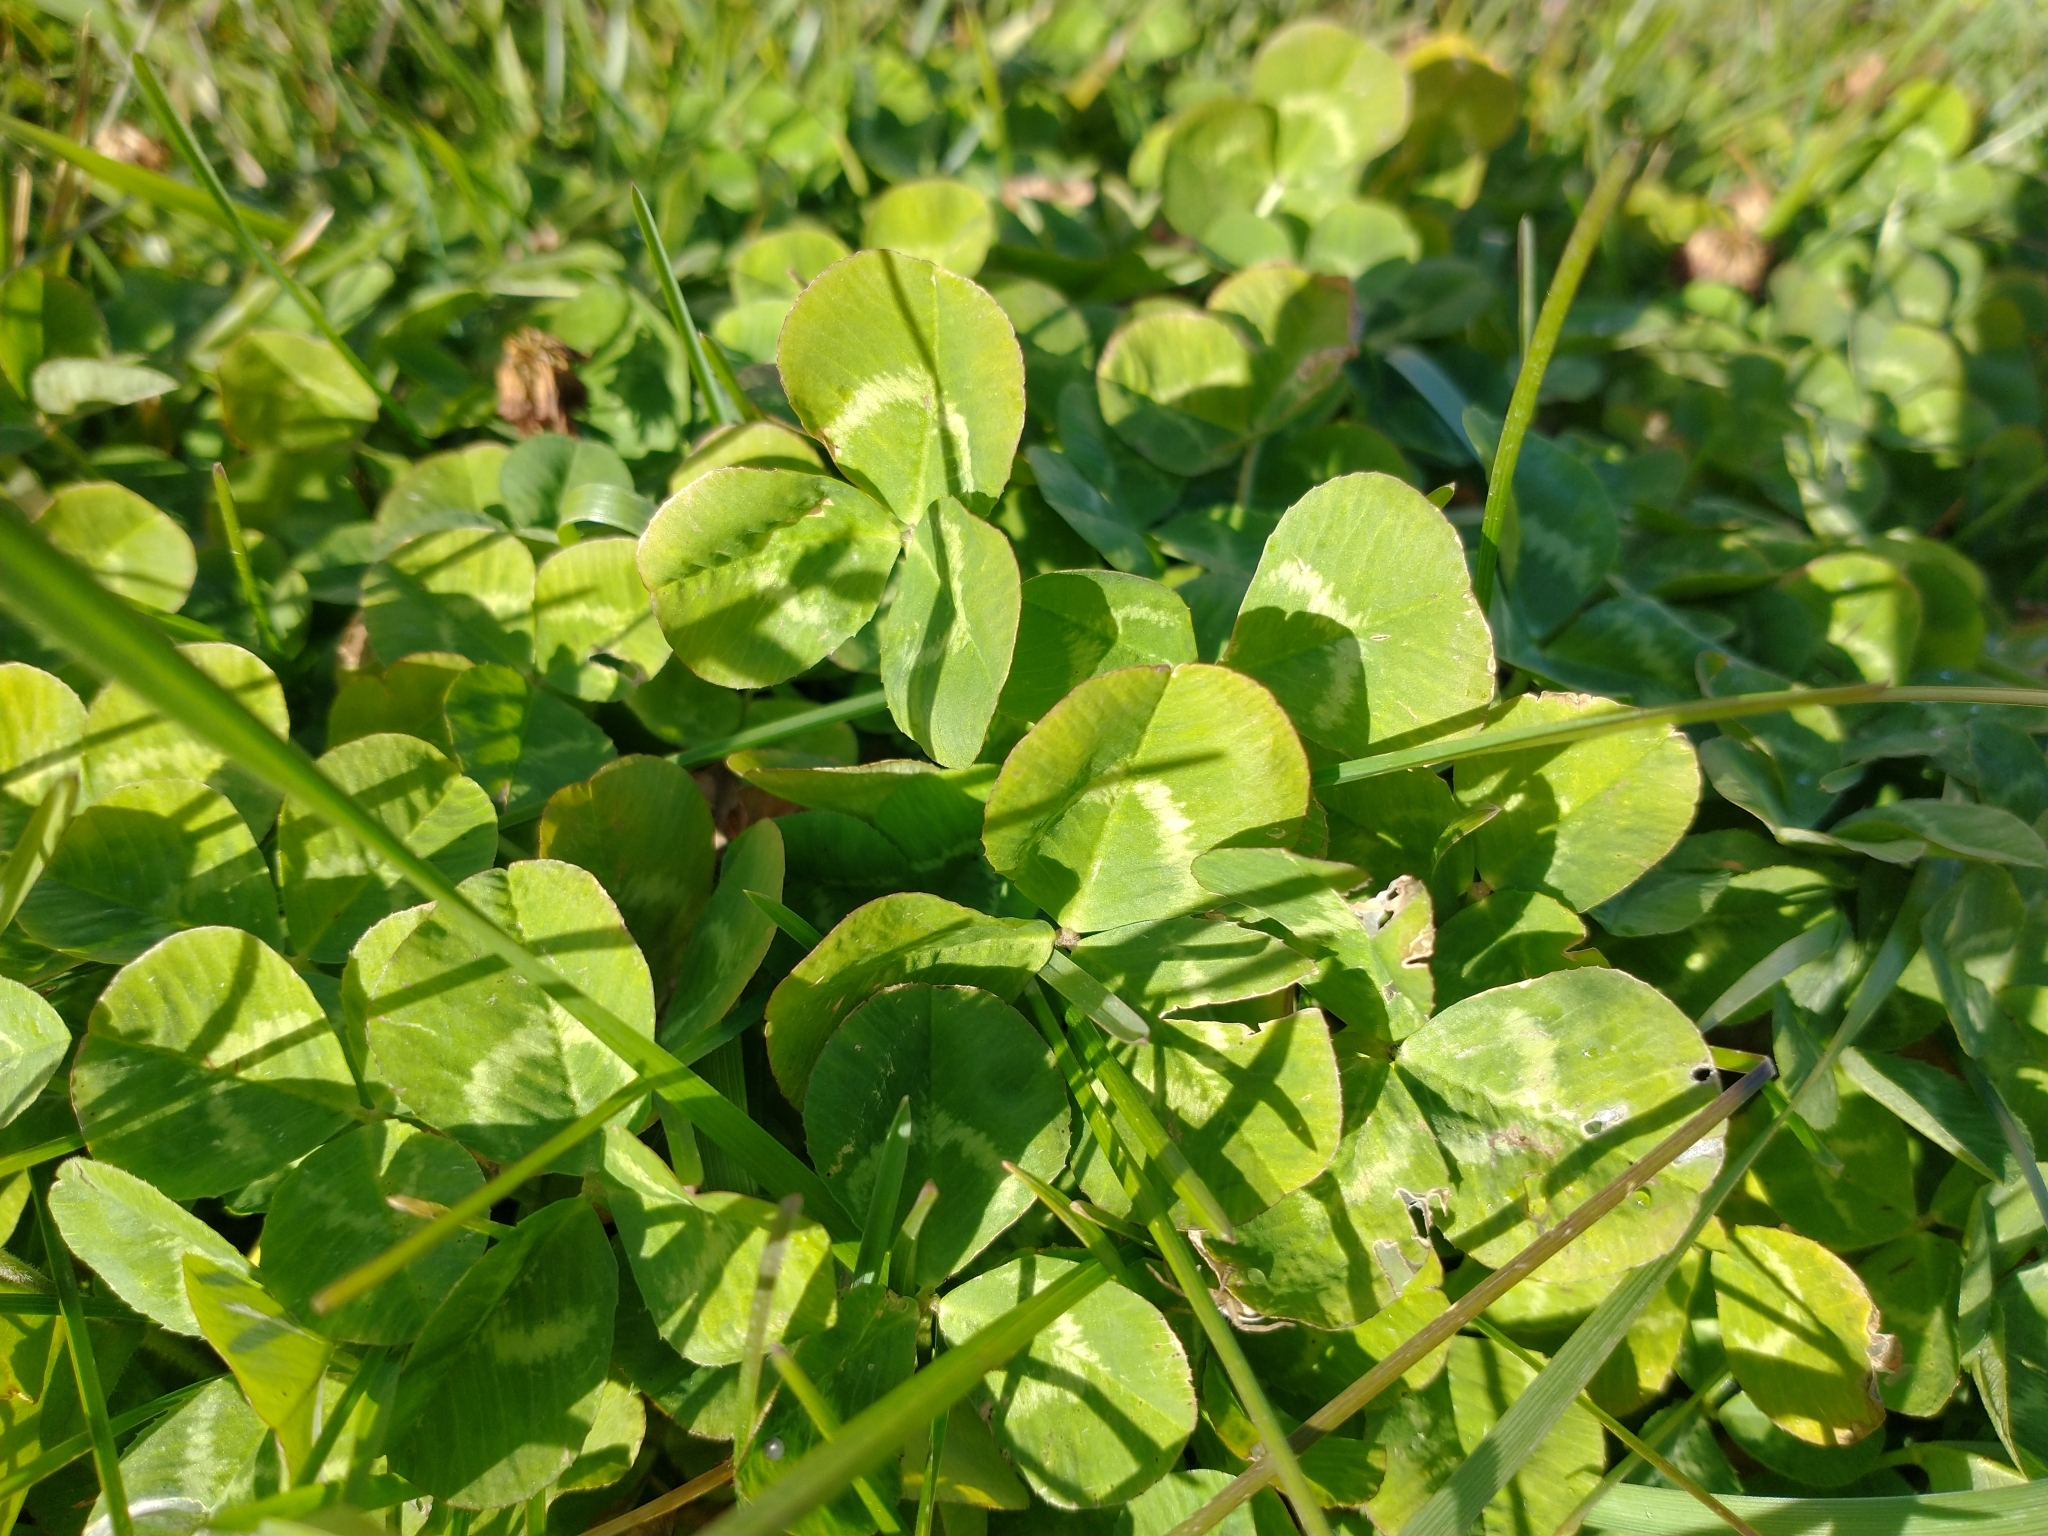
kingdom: Plantae
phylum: Tracheophyta
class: Magnoliopsida
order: Fabales
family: Fabaceae
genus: Trifolium
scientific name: Trifolium repens
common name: White clover
